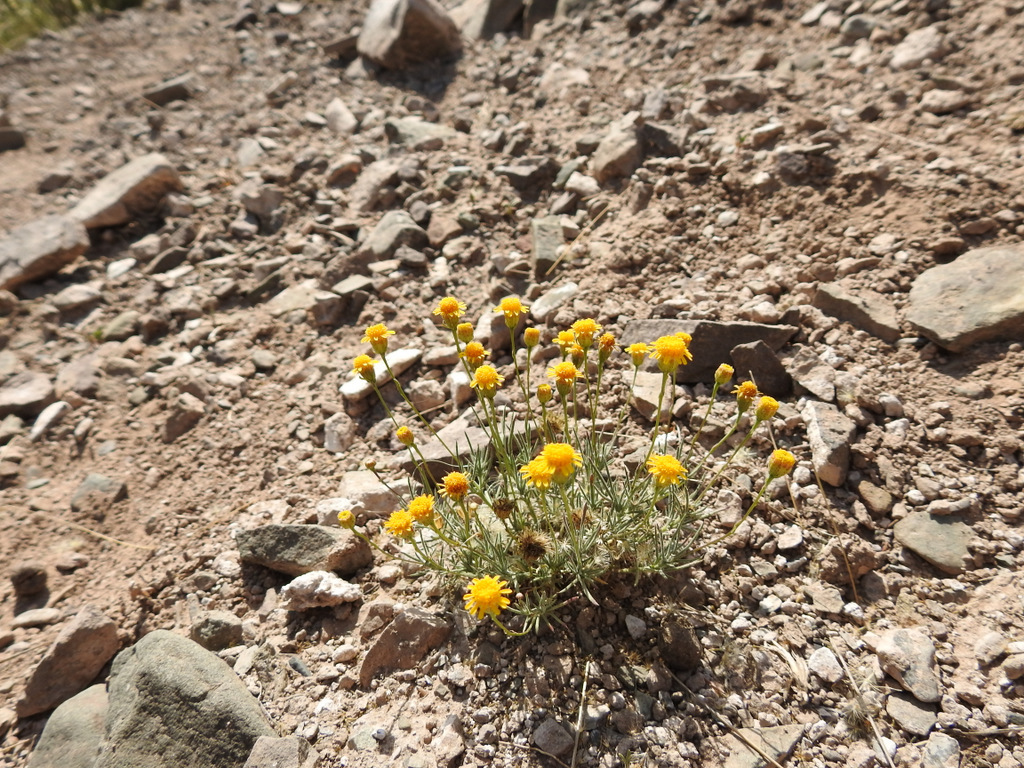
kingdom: Plantae
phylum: Tracheophyta
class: Magnoliopsida
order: Asterales
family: Asteraceae
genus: Thymophylla
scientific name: Thymophylla pentachaeta
